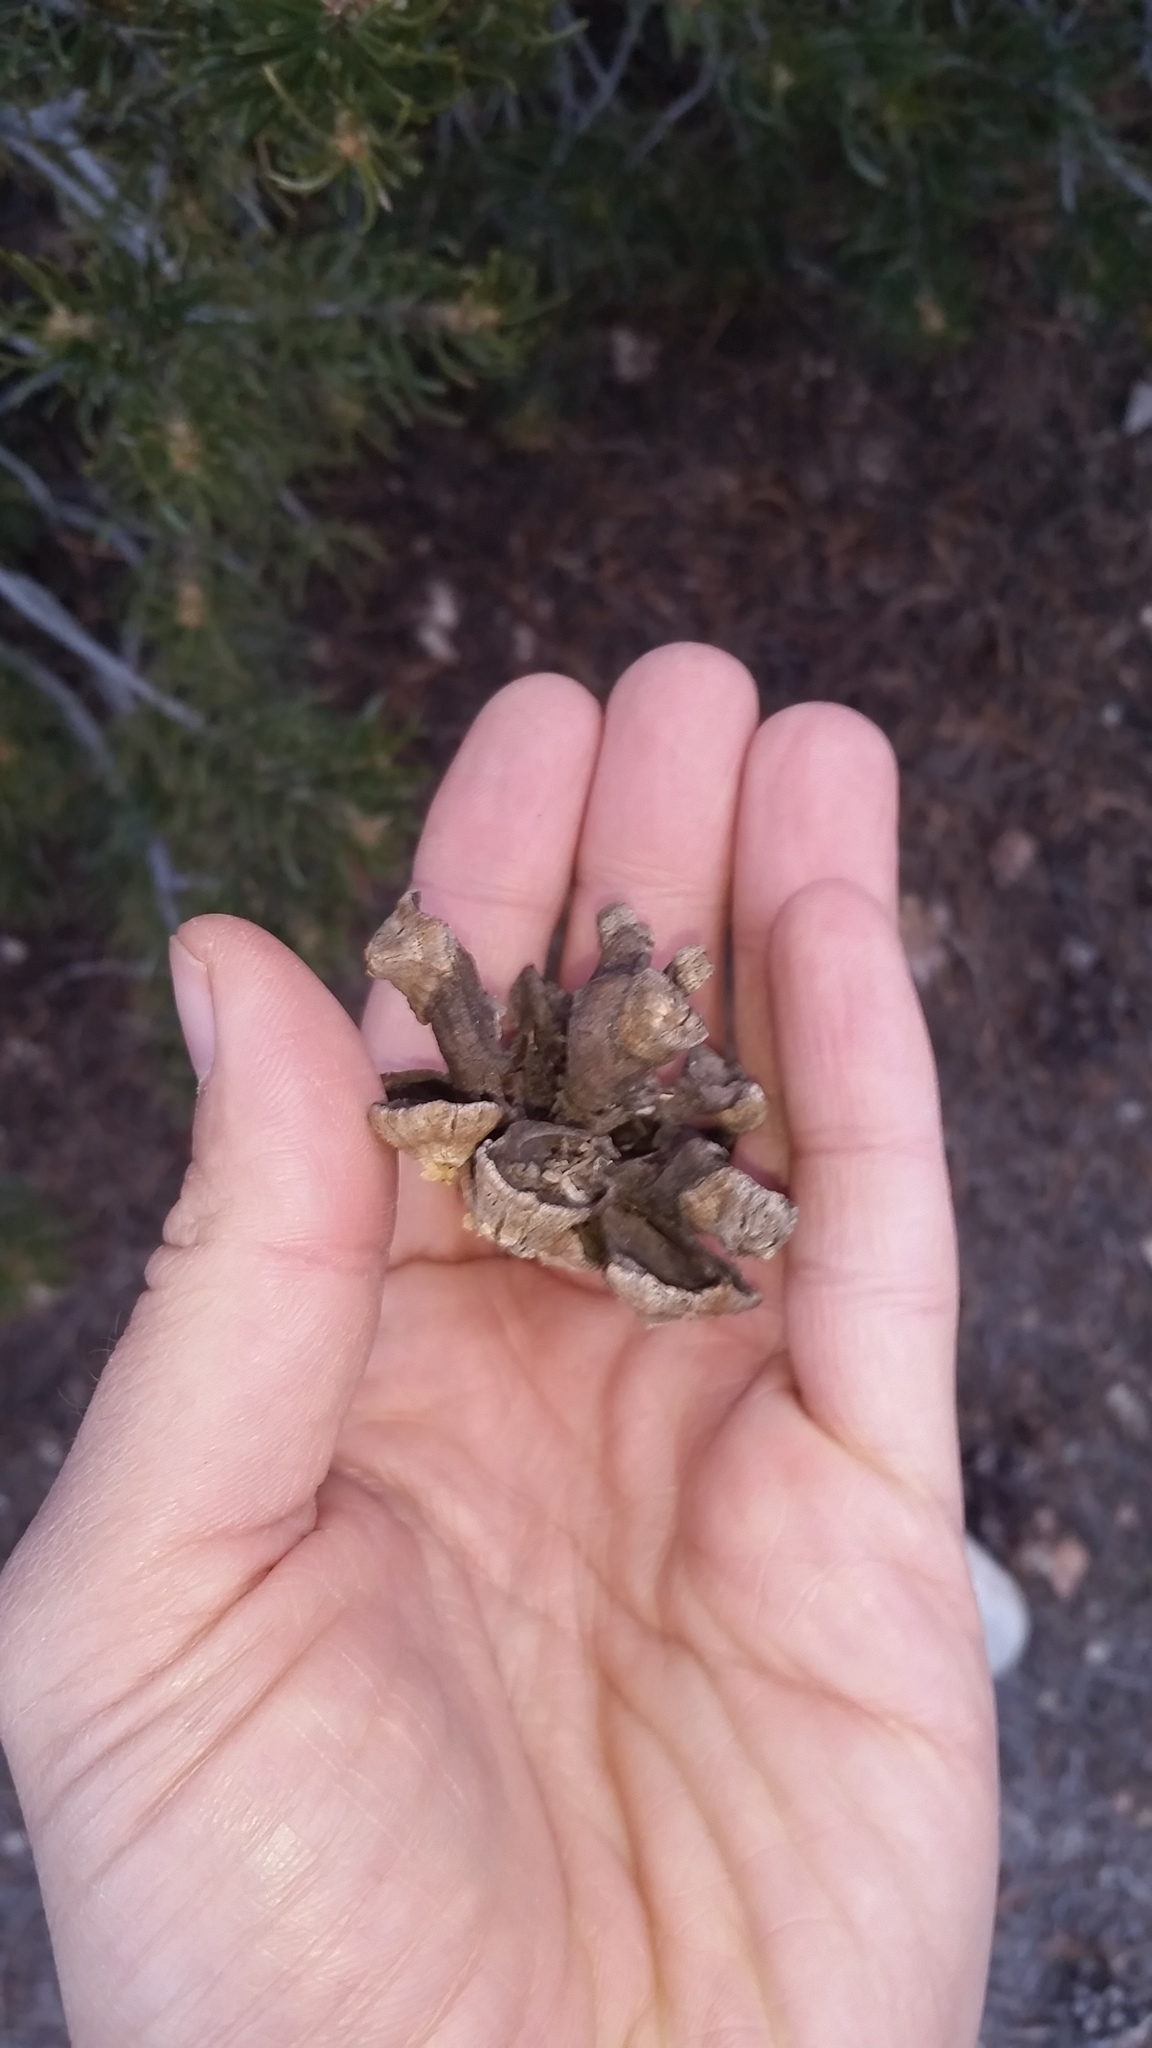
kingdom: Plantae
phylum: Tracheophyta
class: Pinopsida
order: Pinales
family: Pinaceae
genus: Pinus
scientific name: Pinus edulis
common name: Colorado pinyon
